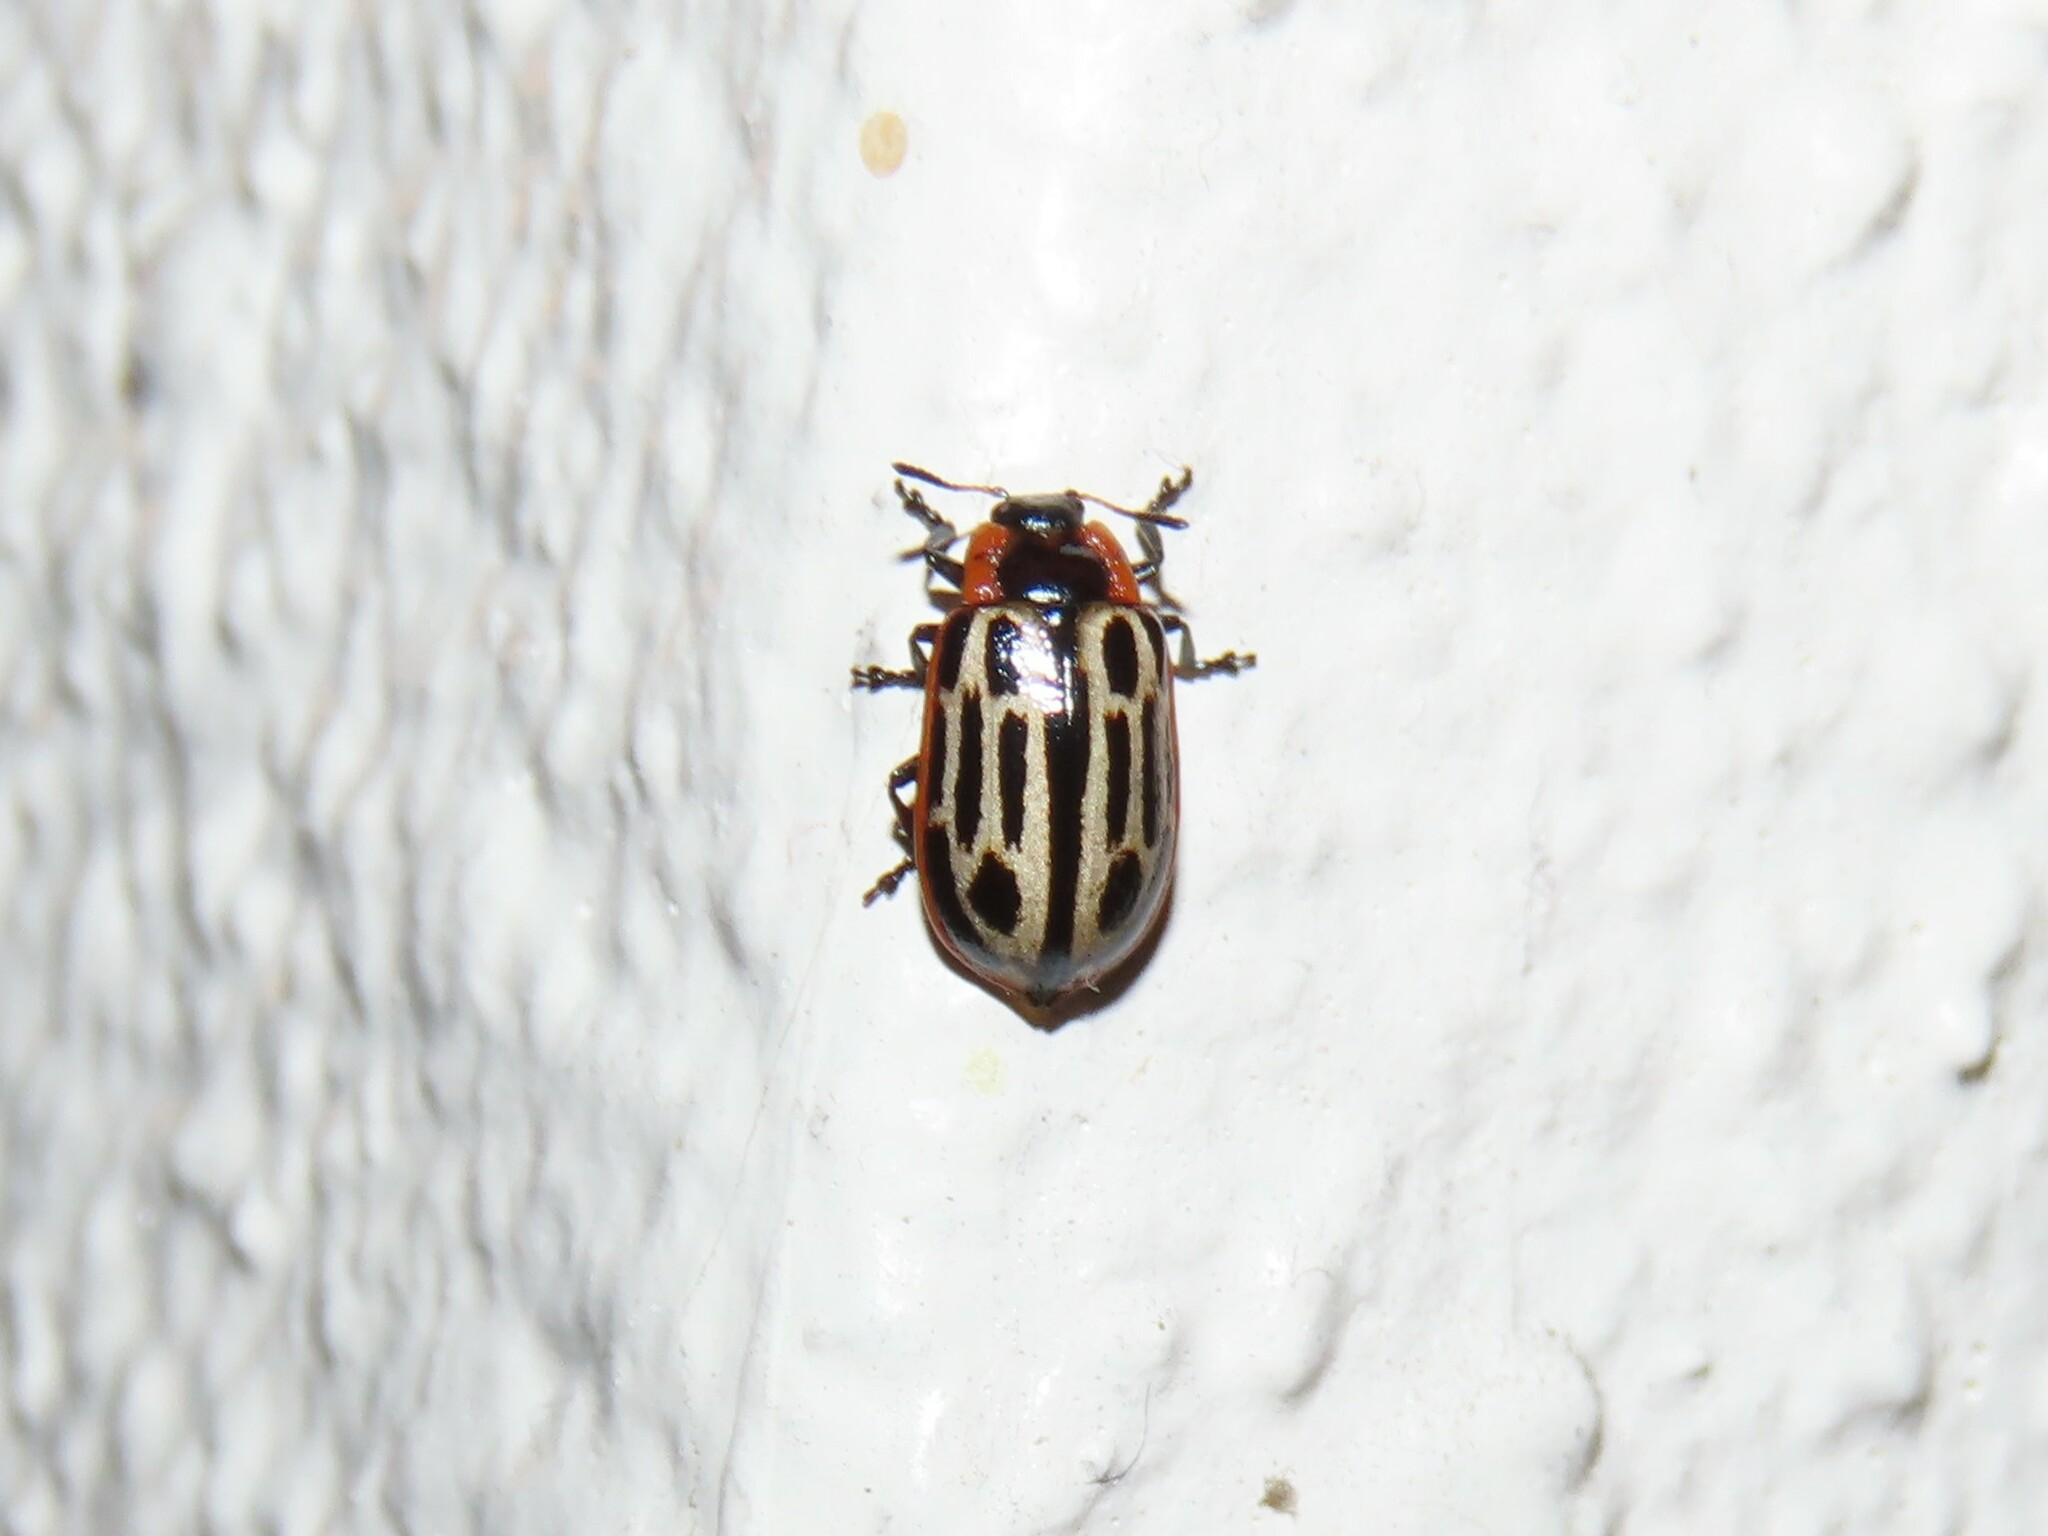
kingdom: Animalia
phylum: Arthropoda
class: Insecta
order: Coleoptera
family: Chrysomelidae
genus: Aethiopocassis
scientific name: Aethiopocassis scripta
